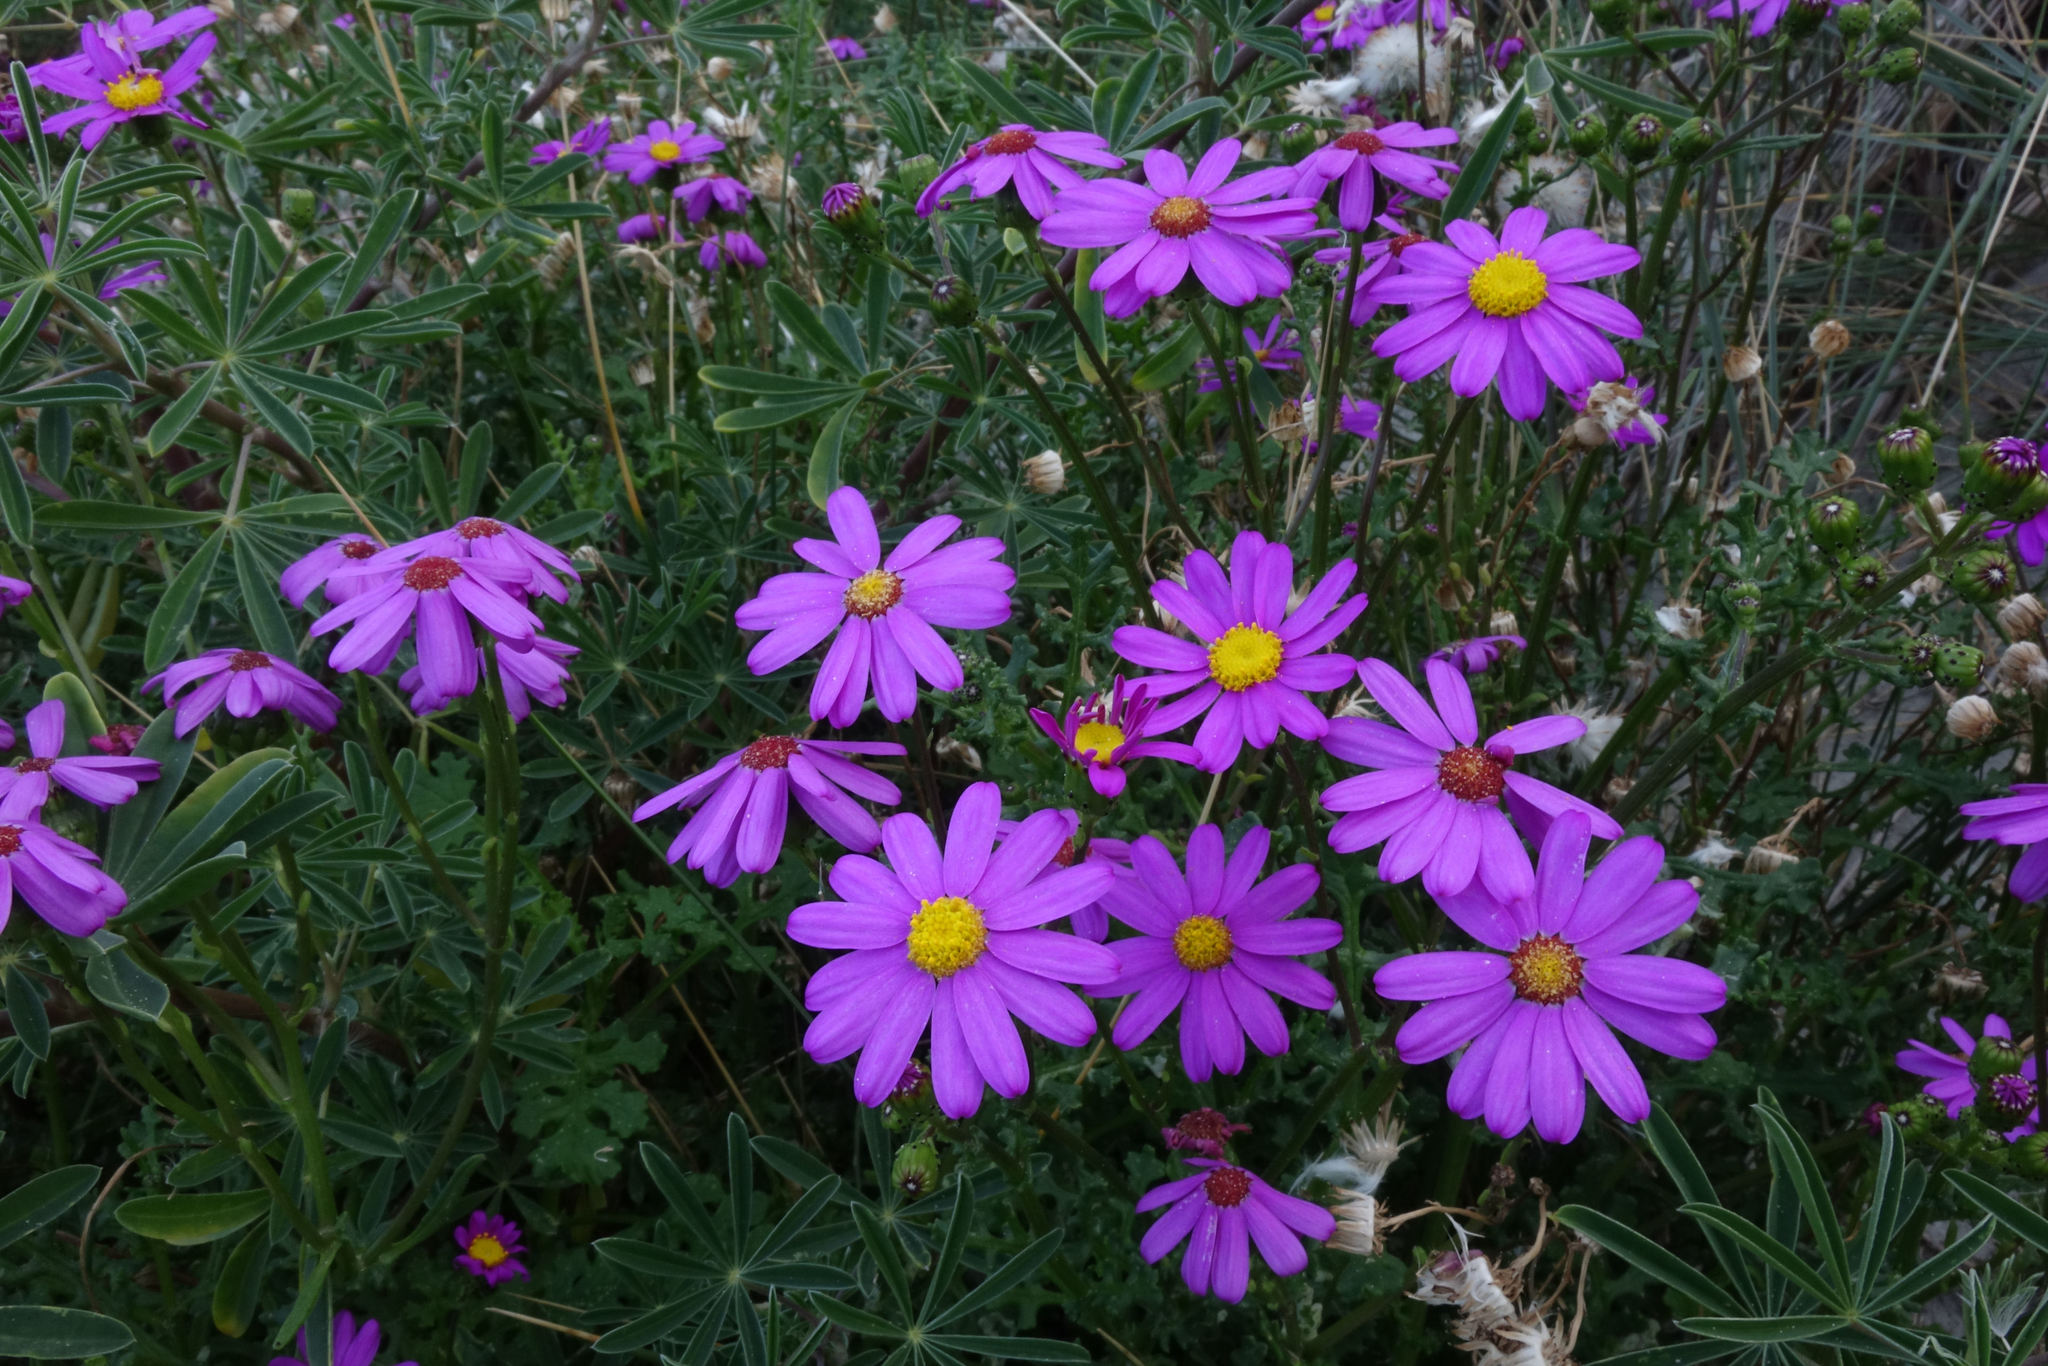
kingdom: Plantae
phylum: Tracheophyta
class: Magnoliopsida
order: Asterales
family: Asteraceae
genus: Senecio
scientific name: Senecio elegans
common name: Purple groundsel
